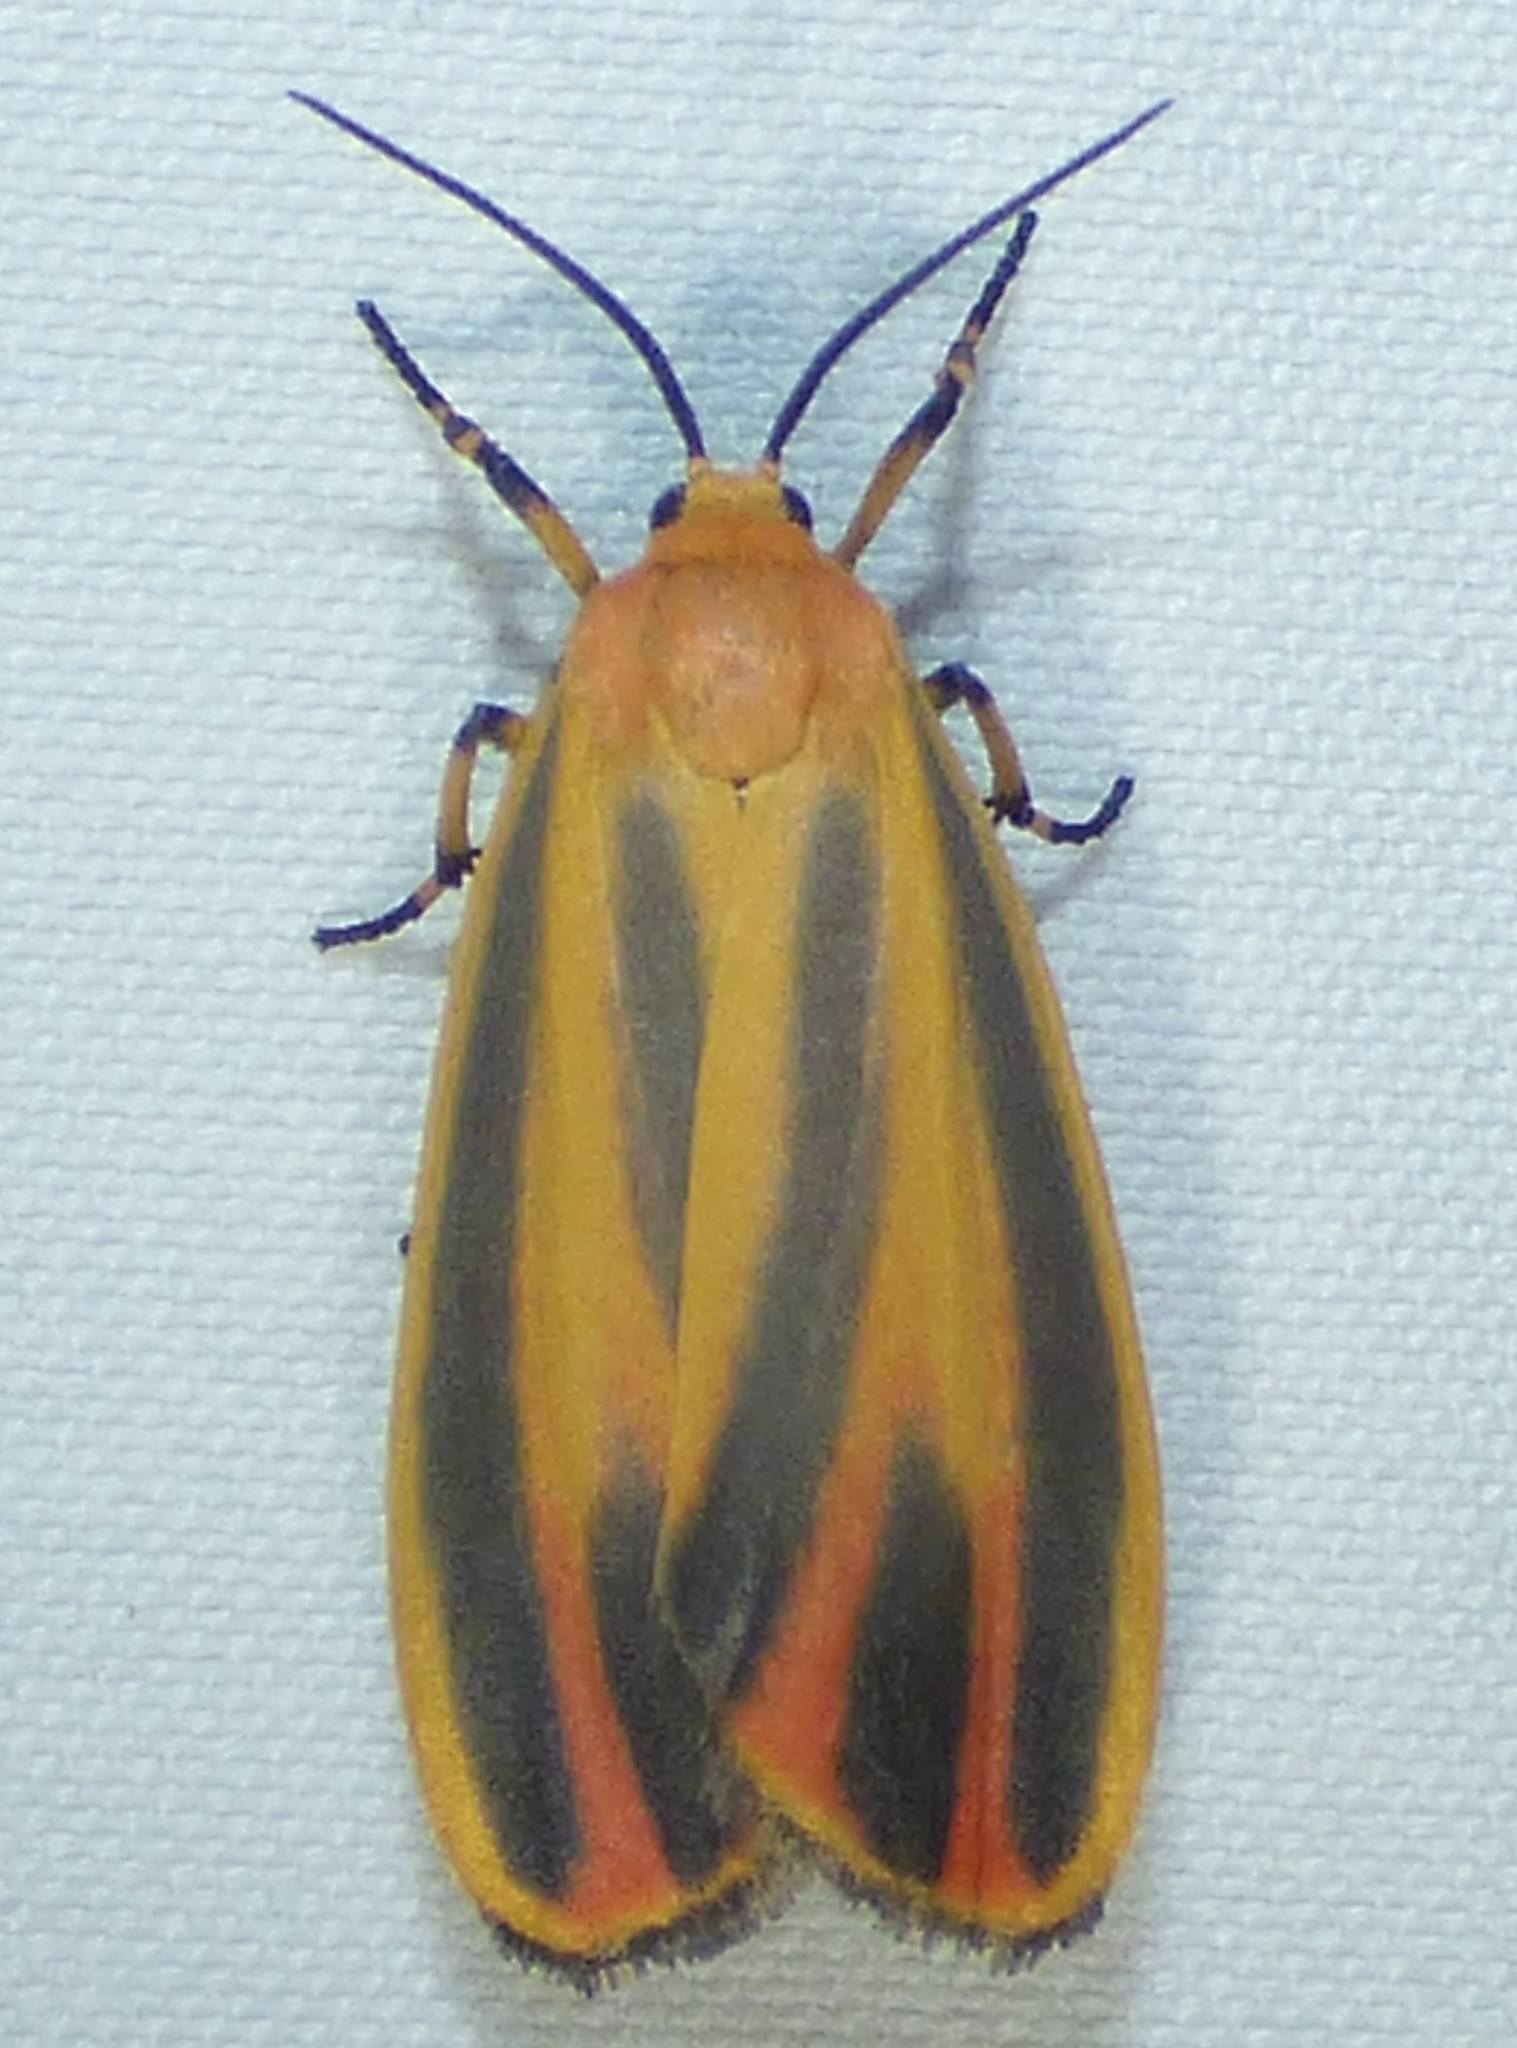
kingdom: Animalia
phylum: Arthropoda
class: Insecta
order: Lepidoptera
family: Erebidae
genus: Hypoprepia
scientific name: Hypoprepia fucosa
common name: Painted lichen moth
